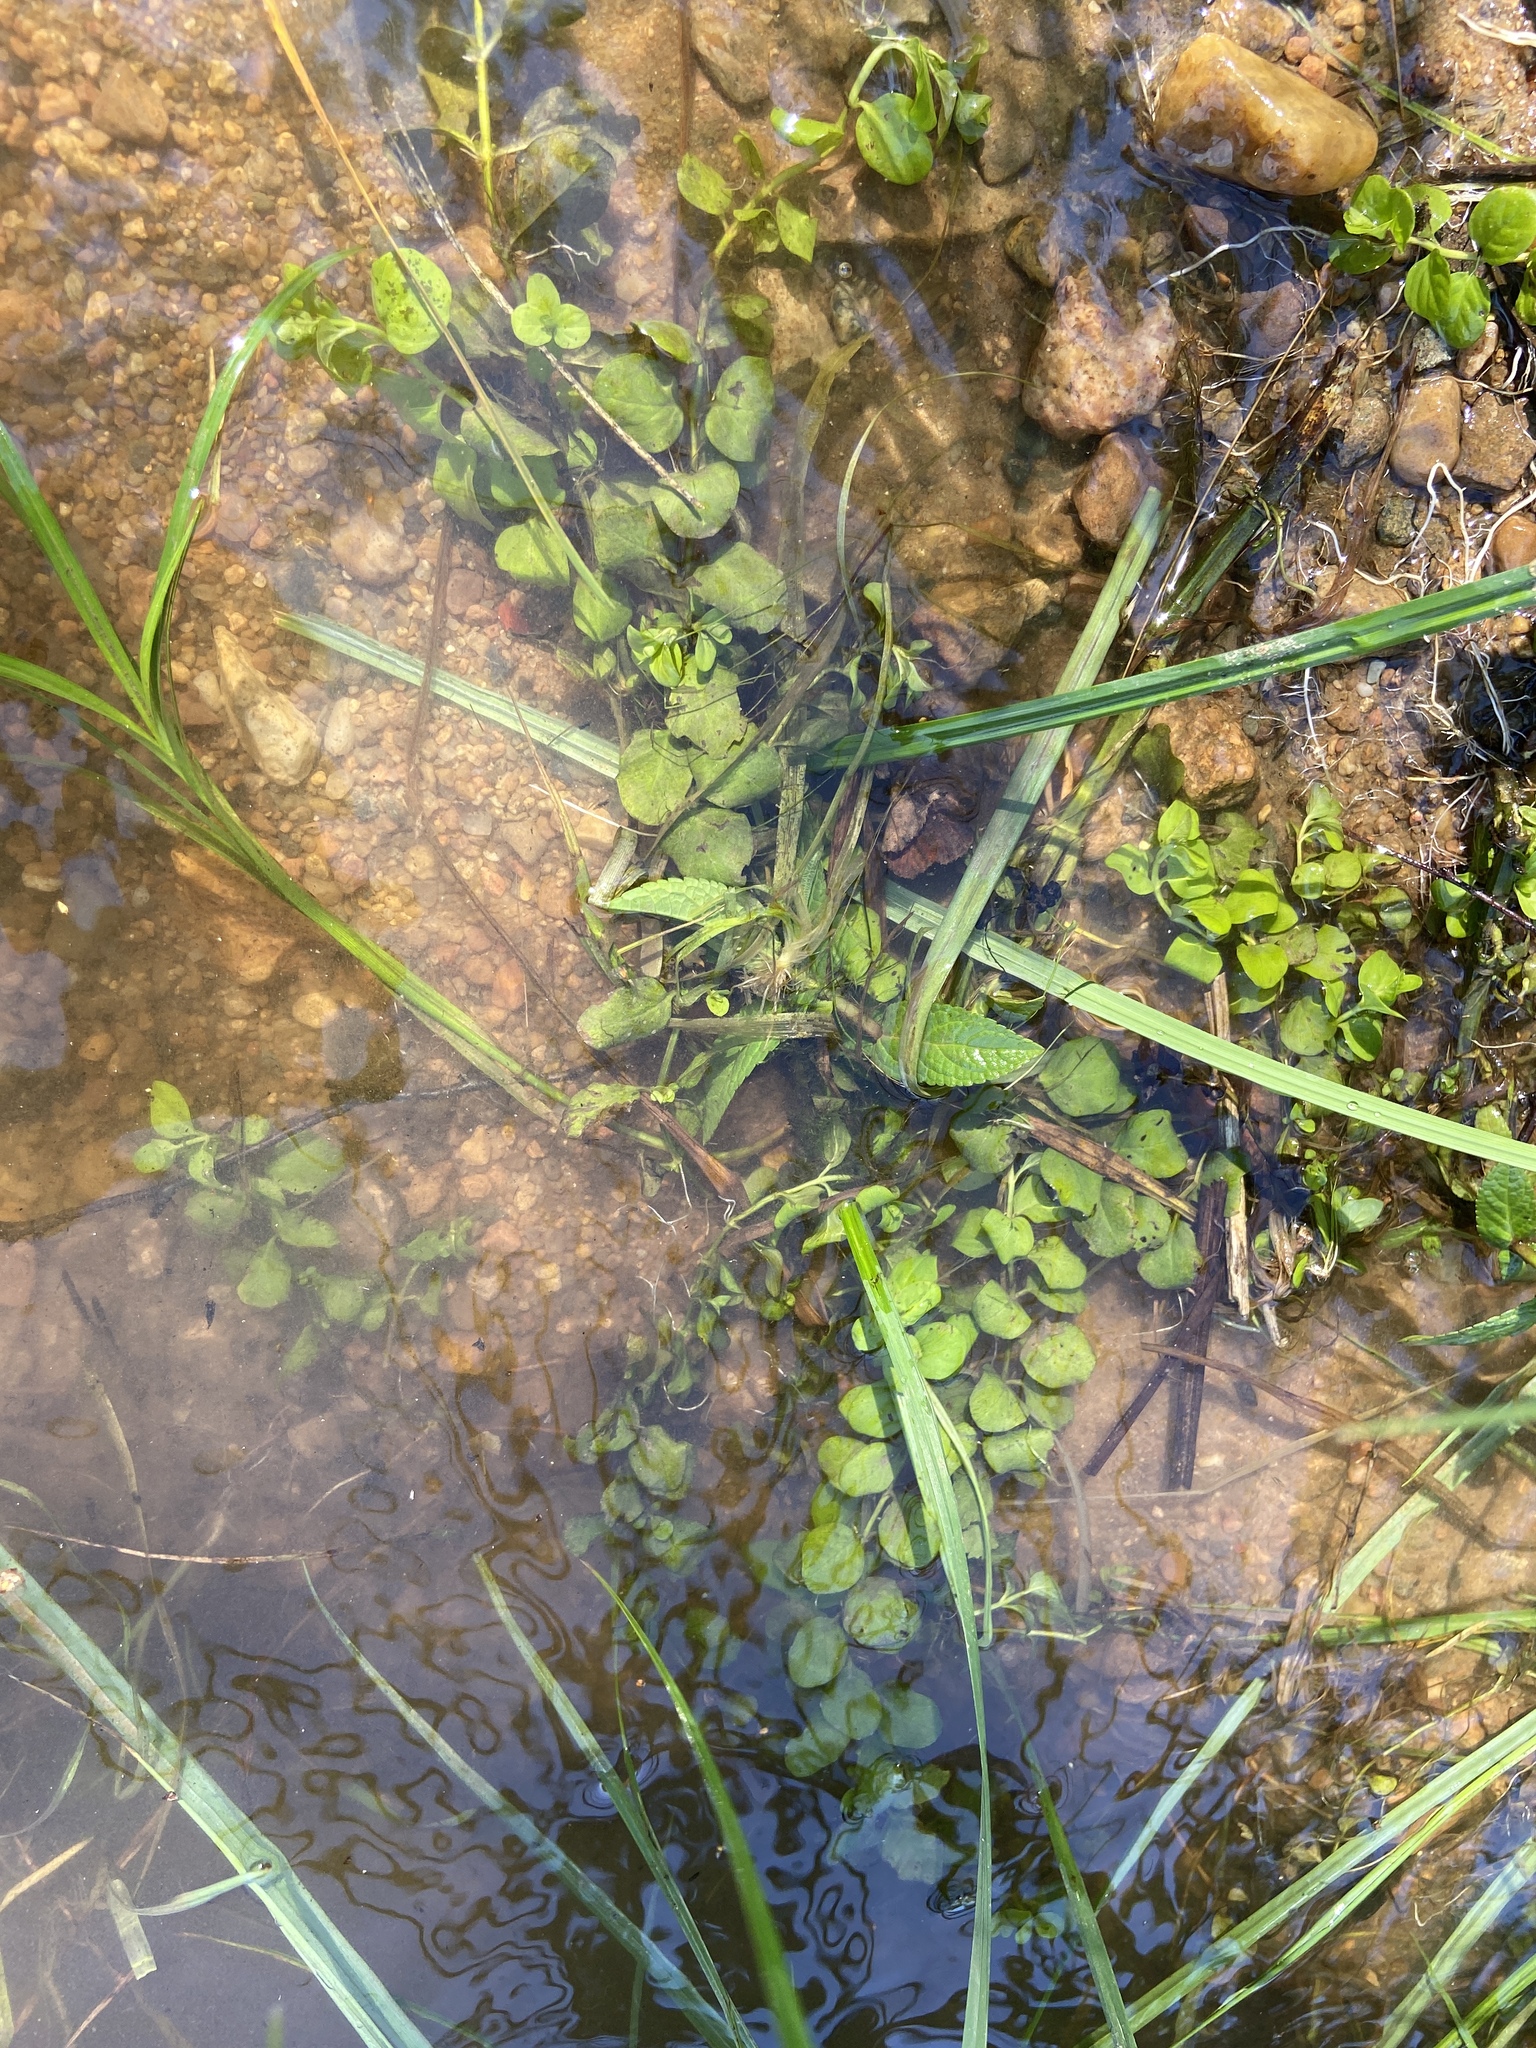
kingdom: Plantae
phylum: Tracheophyta
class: Magnoliopsida
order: Ericales
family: Primulaceae
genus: Lysimachia
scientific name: Lysimachia nummularia
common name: Moneywort
